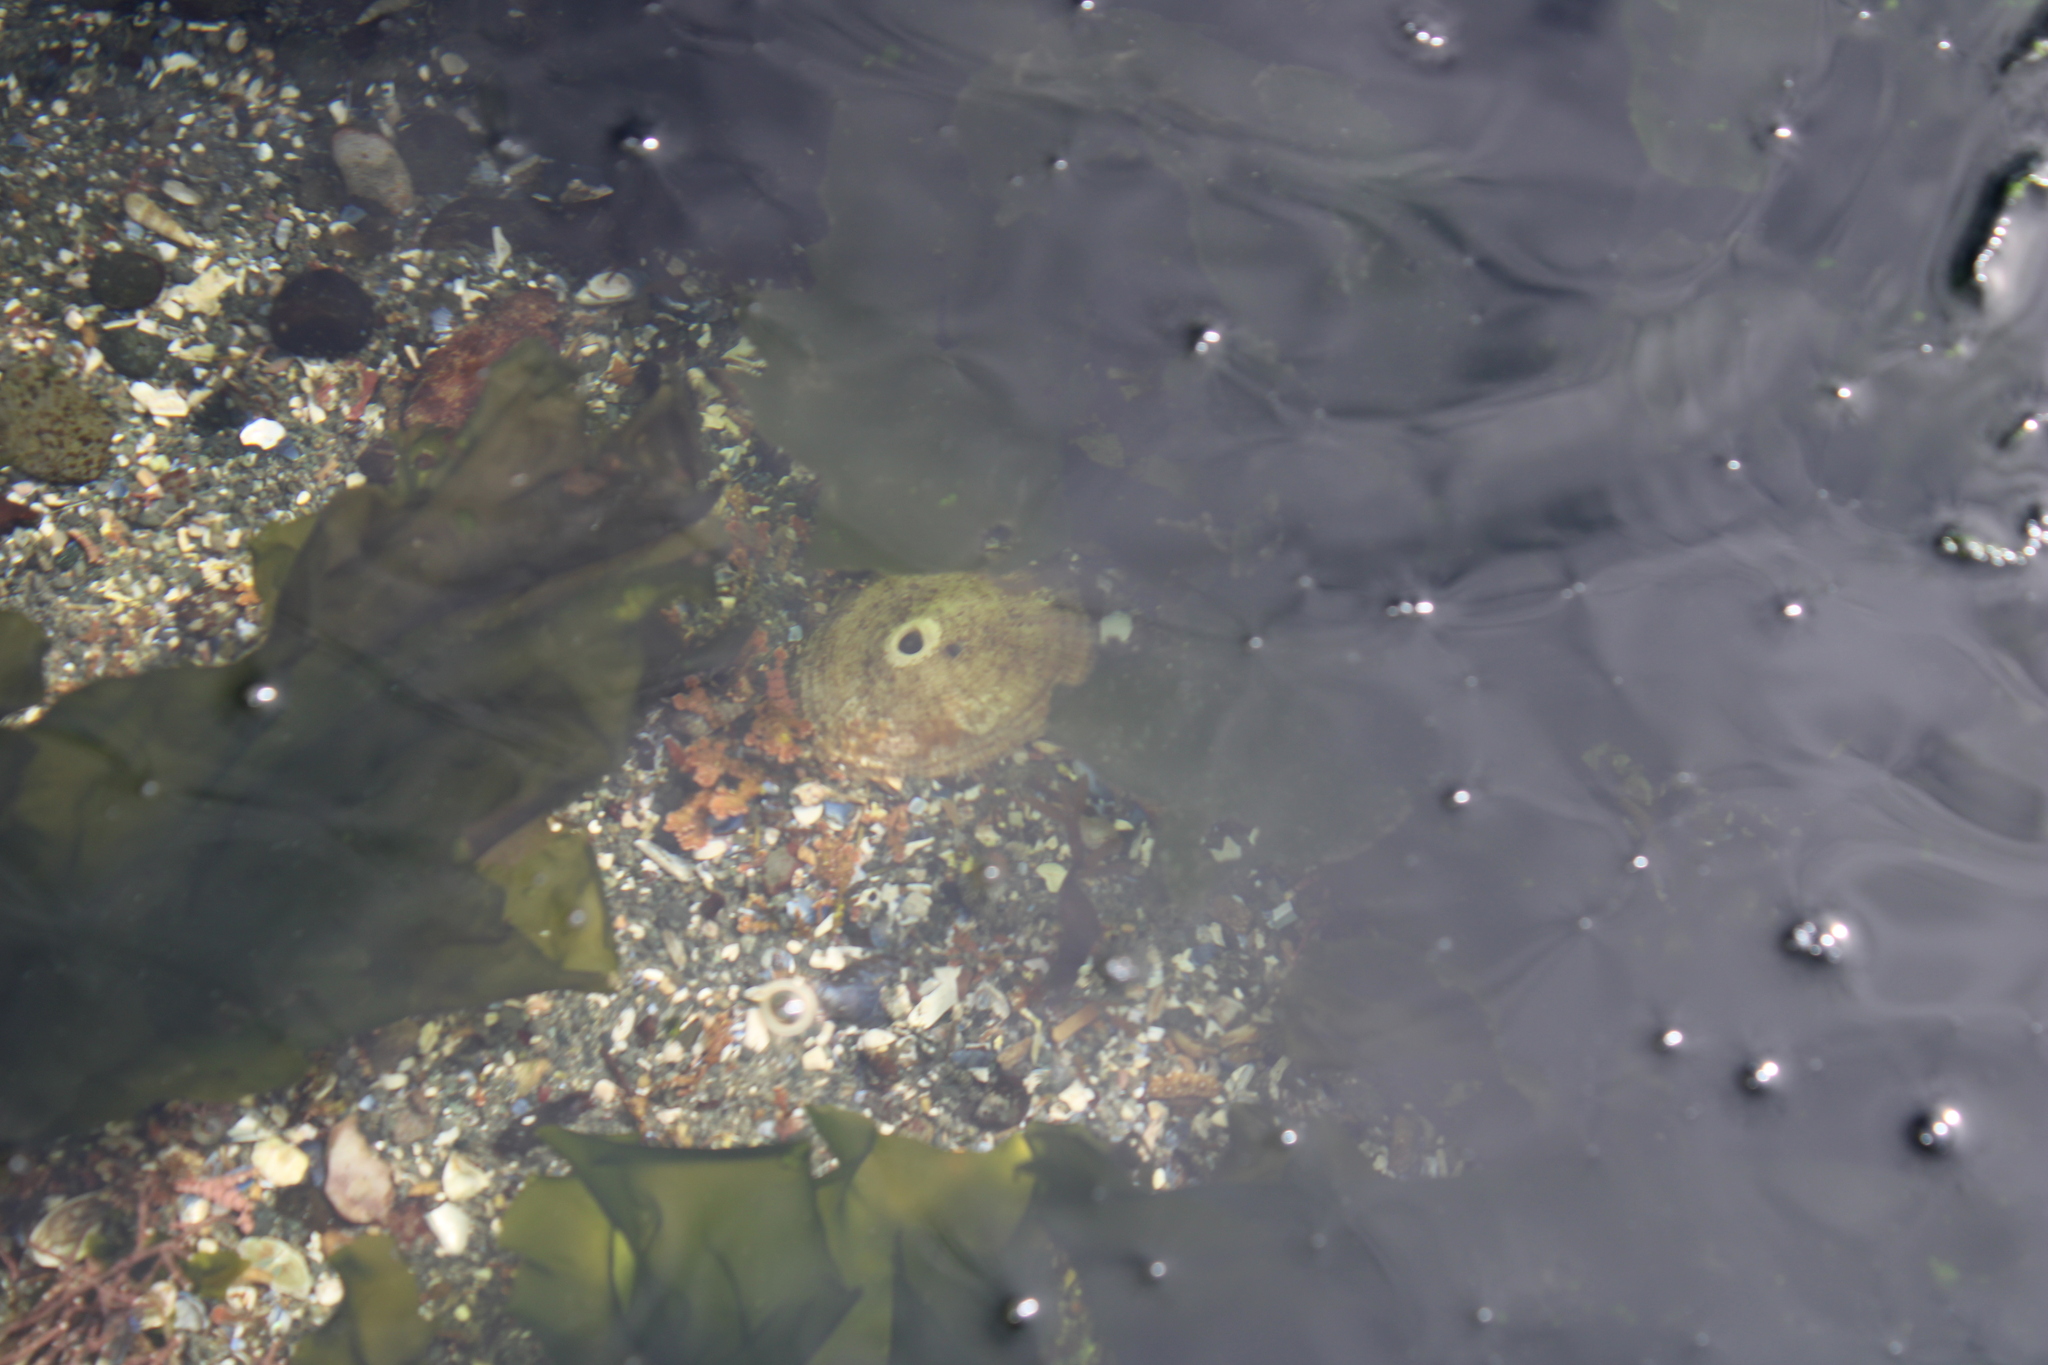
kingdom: Animalia
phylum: Mollusca
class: Gastropoda
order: Lepetellida
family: Fissurellidae
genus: Diodora
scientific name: Diodora aspera
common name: Rough keyhole limpet
